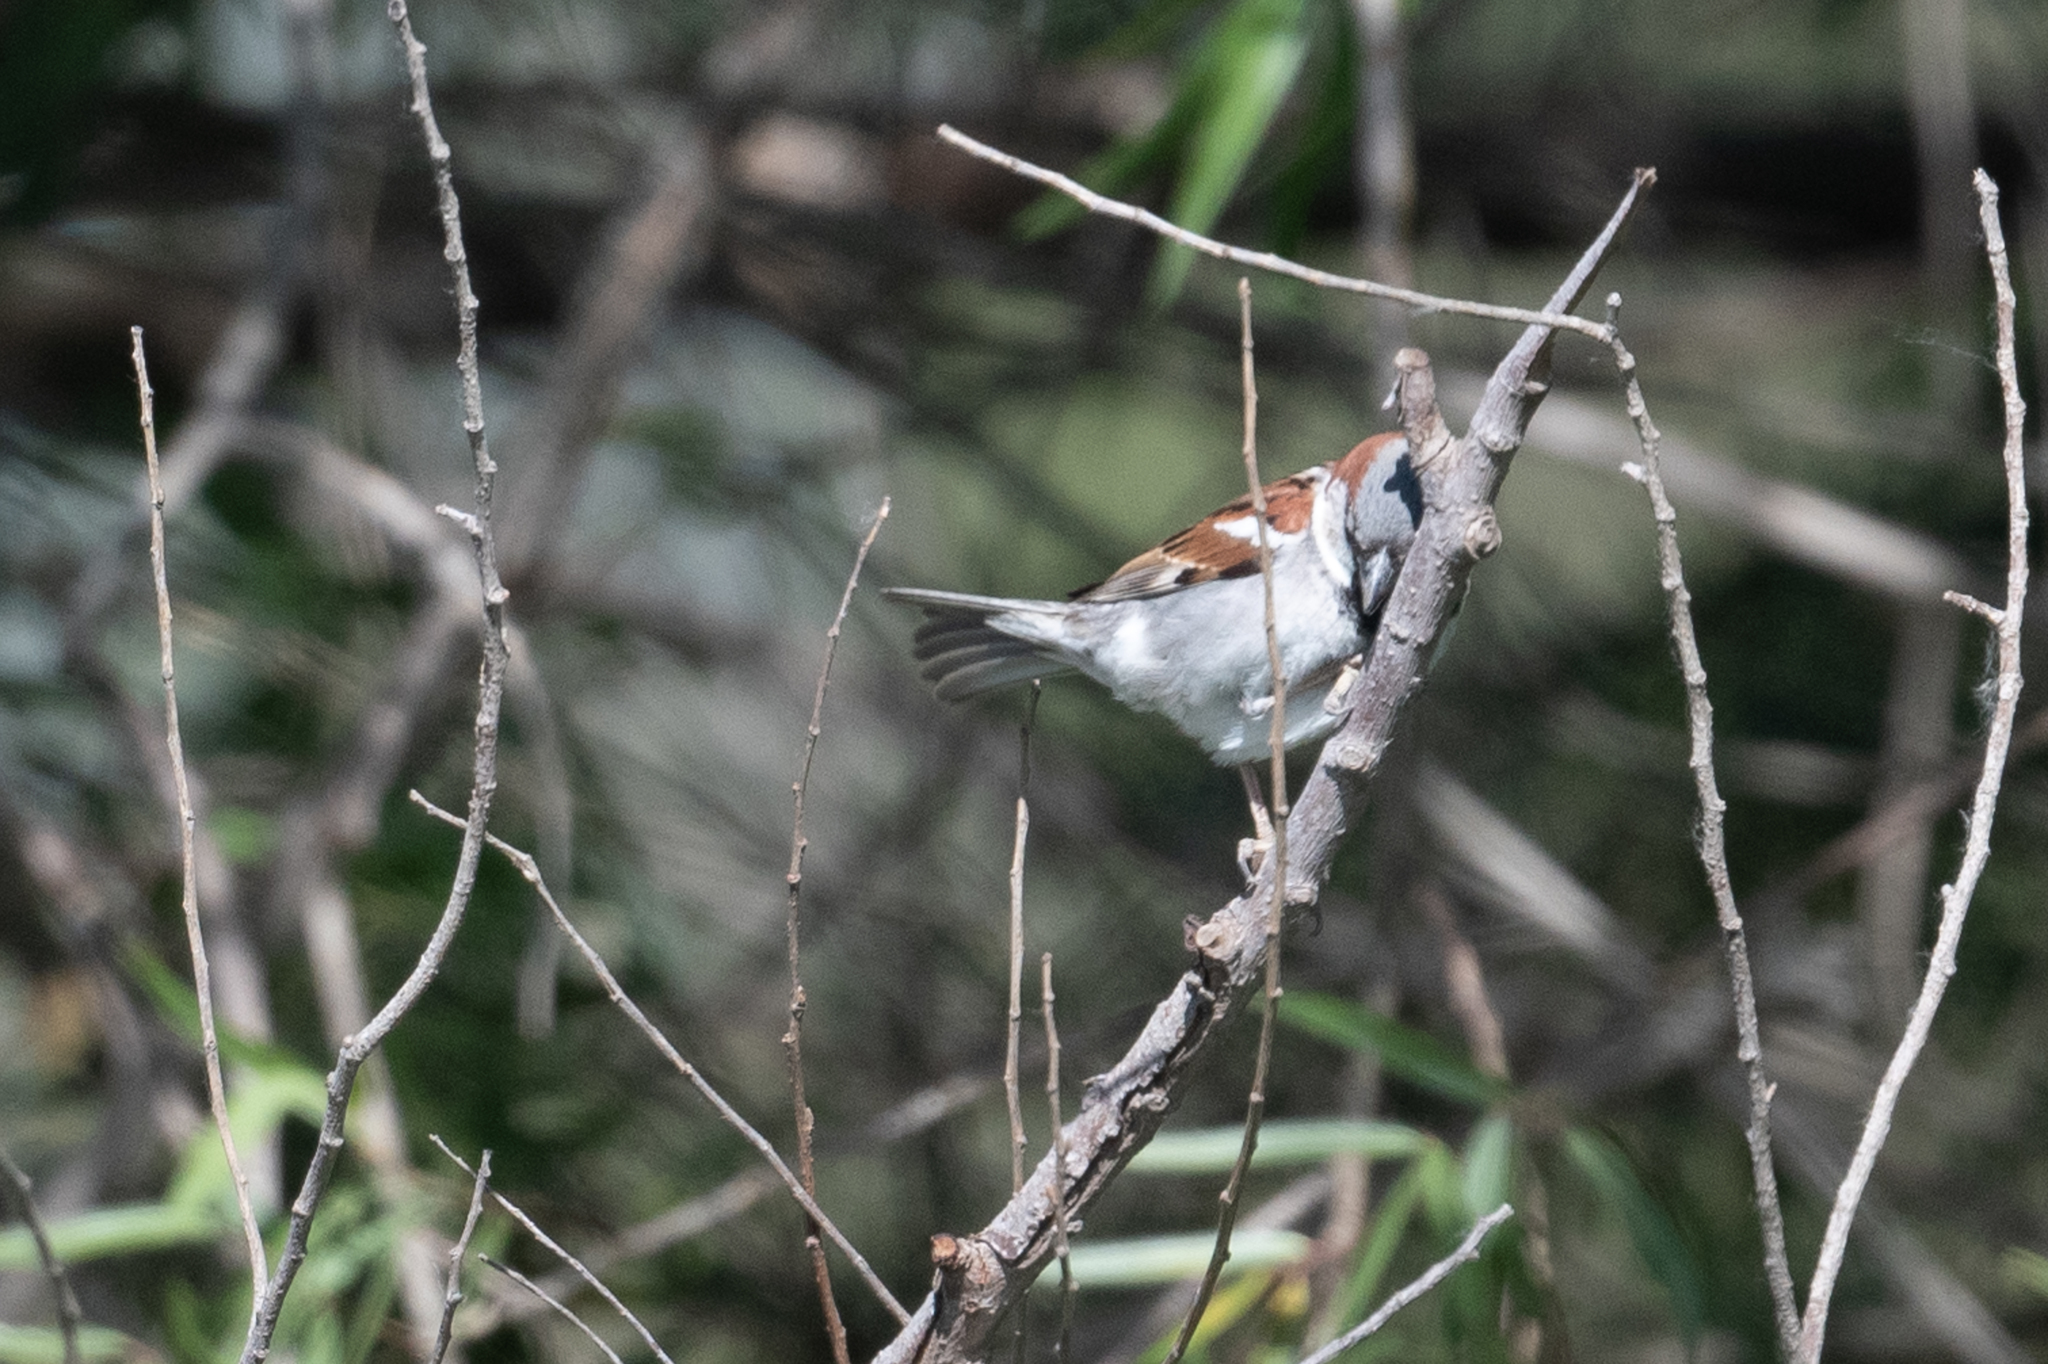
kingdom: Animalia
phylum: Chordata
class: Aves
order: Passeriformes
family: Passeridae
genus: Passer
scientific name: Passer domesticus
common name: House sparrow
